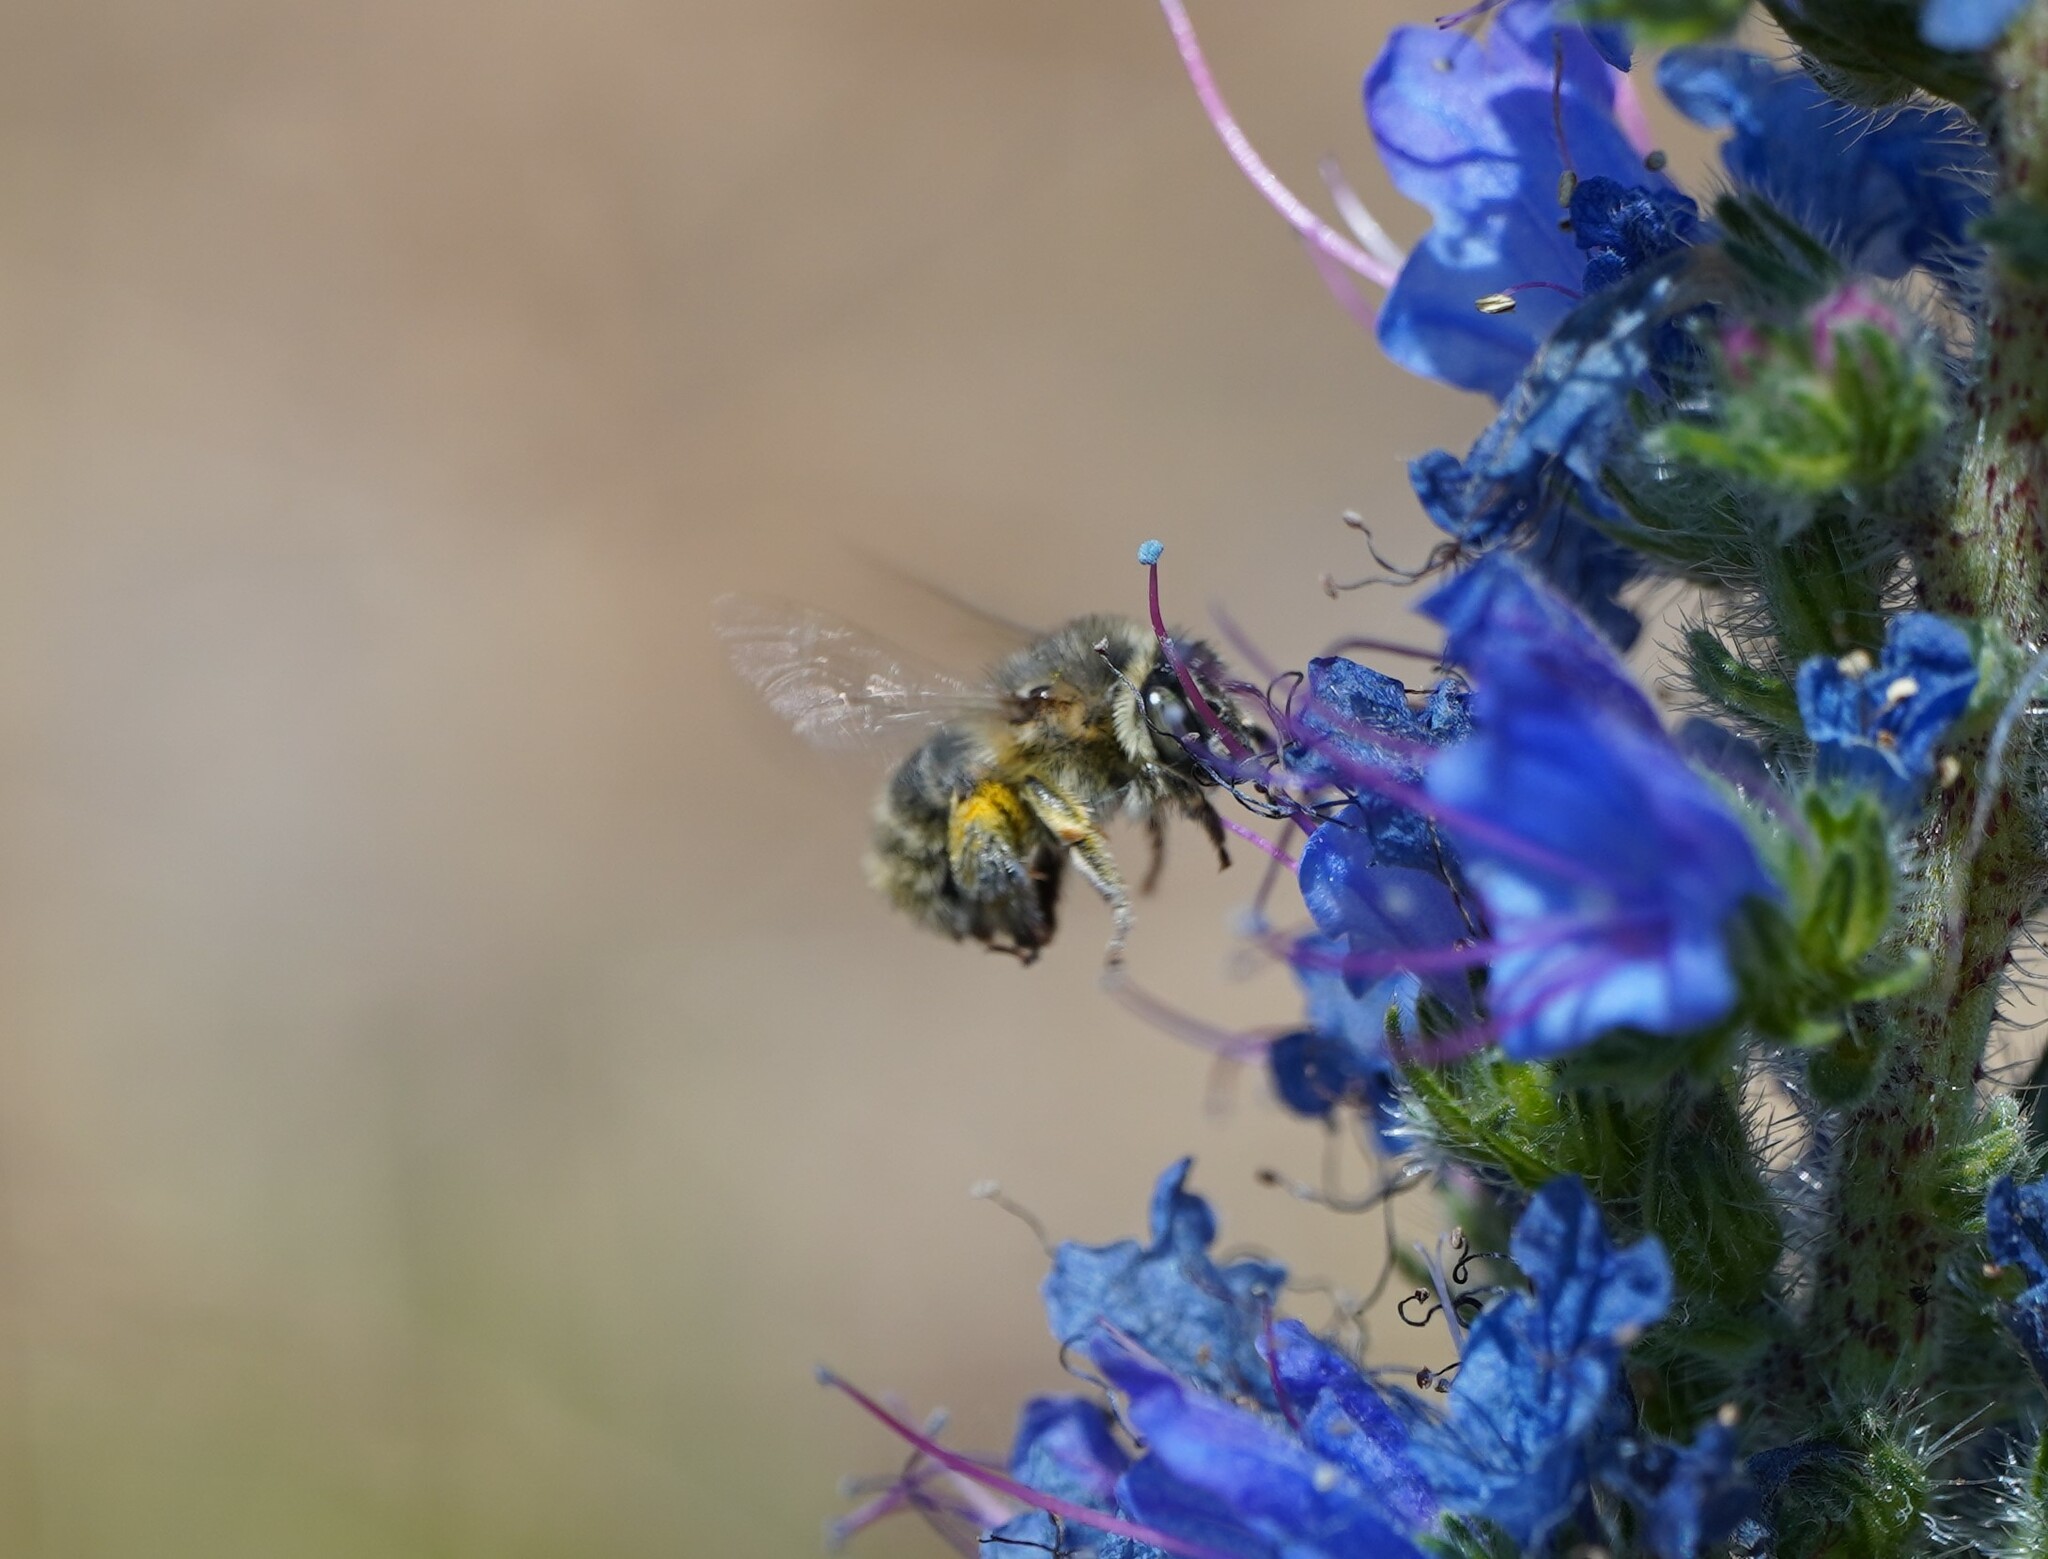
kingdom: Animalia
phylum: Arthropoda
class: Insecta
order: Hymenoptera
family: Apidae
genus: Anthophora
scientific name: Anthophora quadrimaculata
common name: Four-banded flower bee
